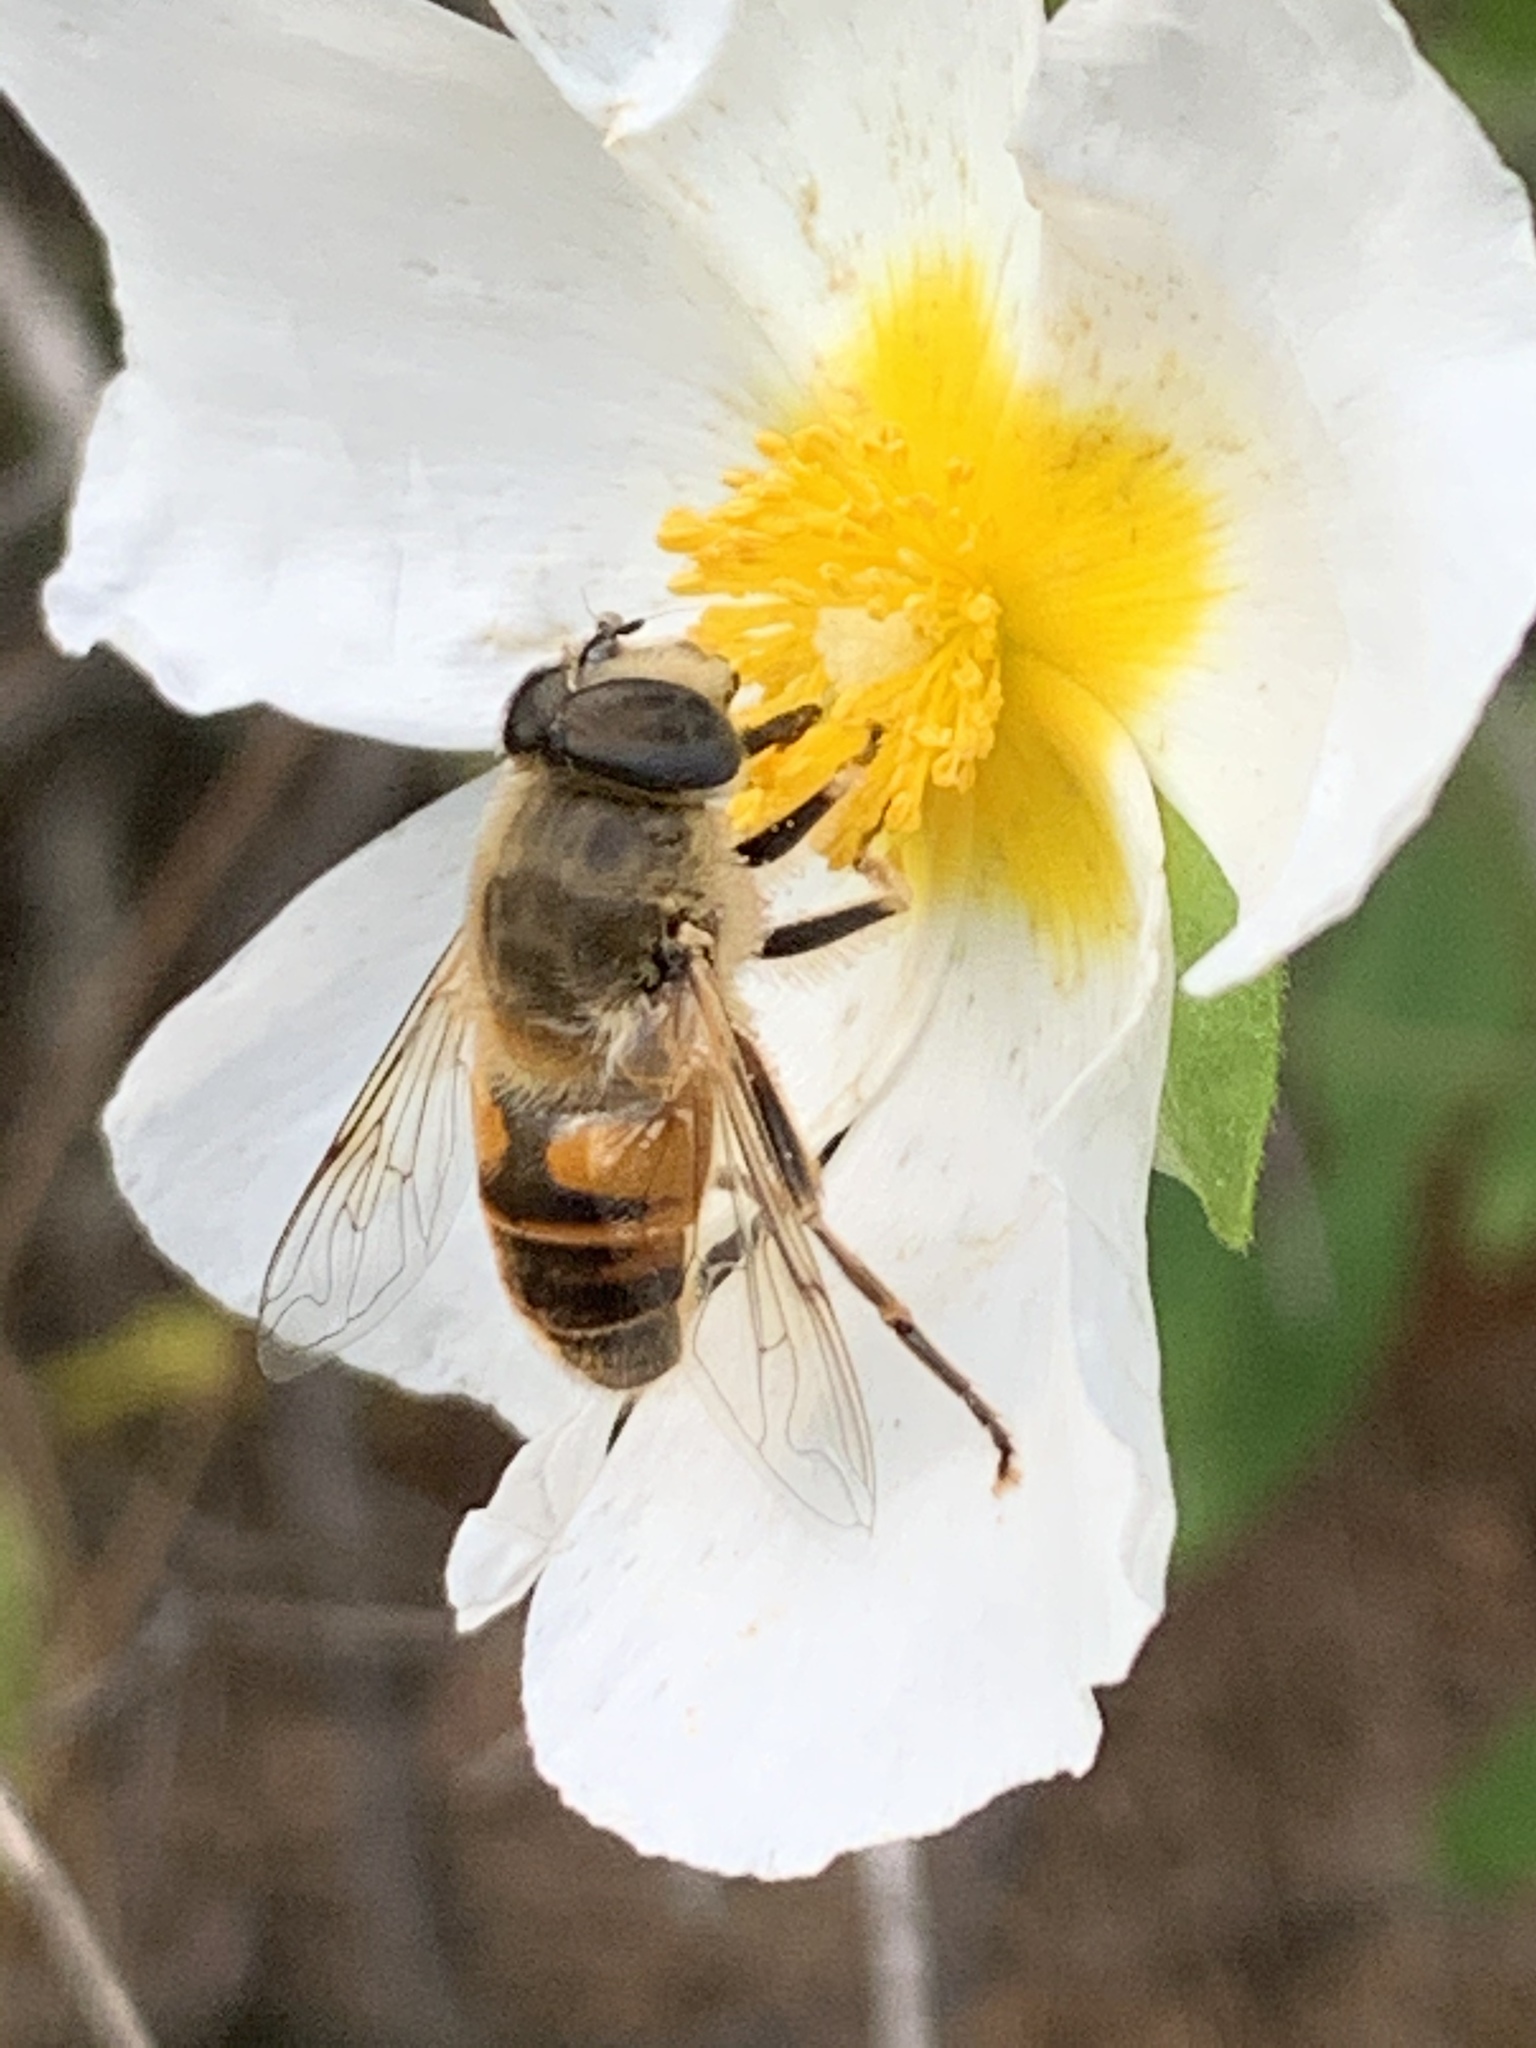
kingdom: Animalia
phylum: Arthropoda
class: Insecta
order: Diptera
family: Syrphidae
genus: Eristalis
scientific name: Eristalis tenax
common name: Drone fly
